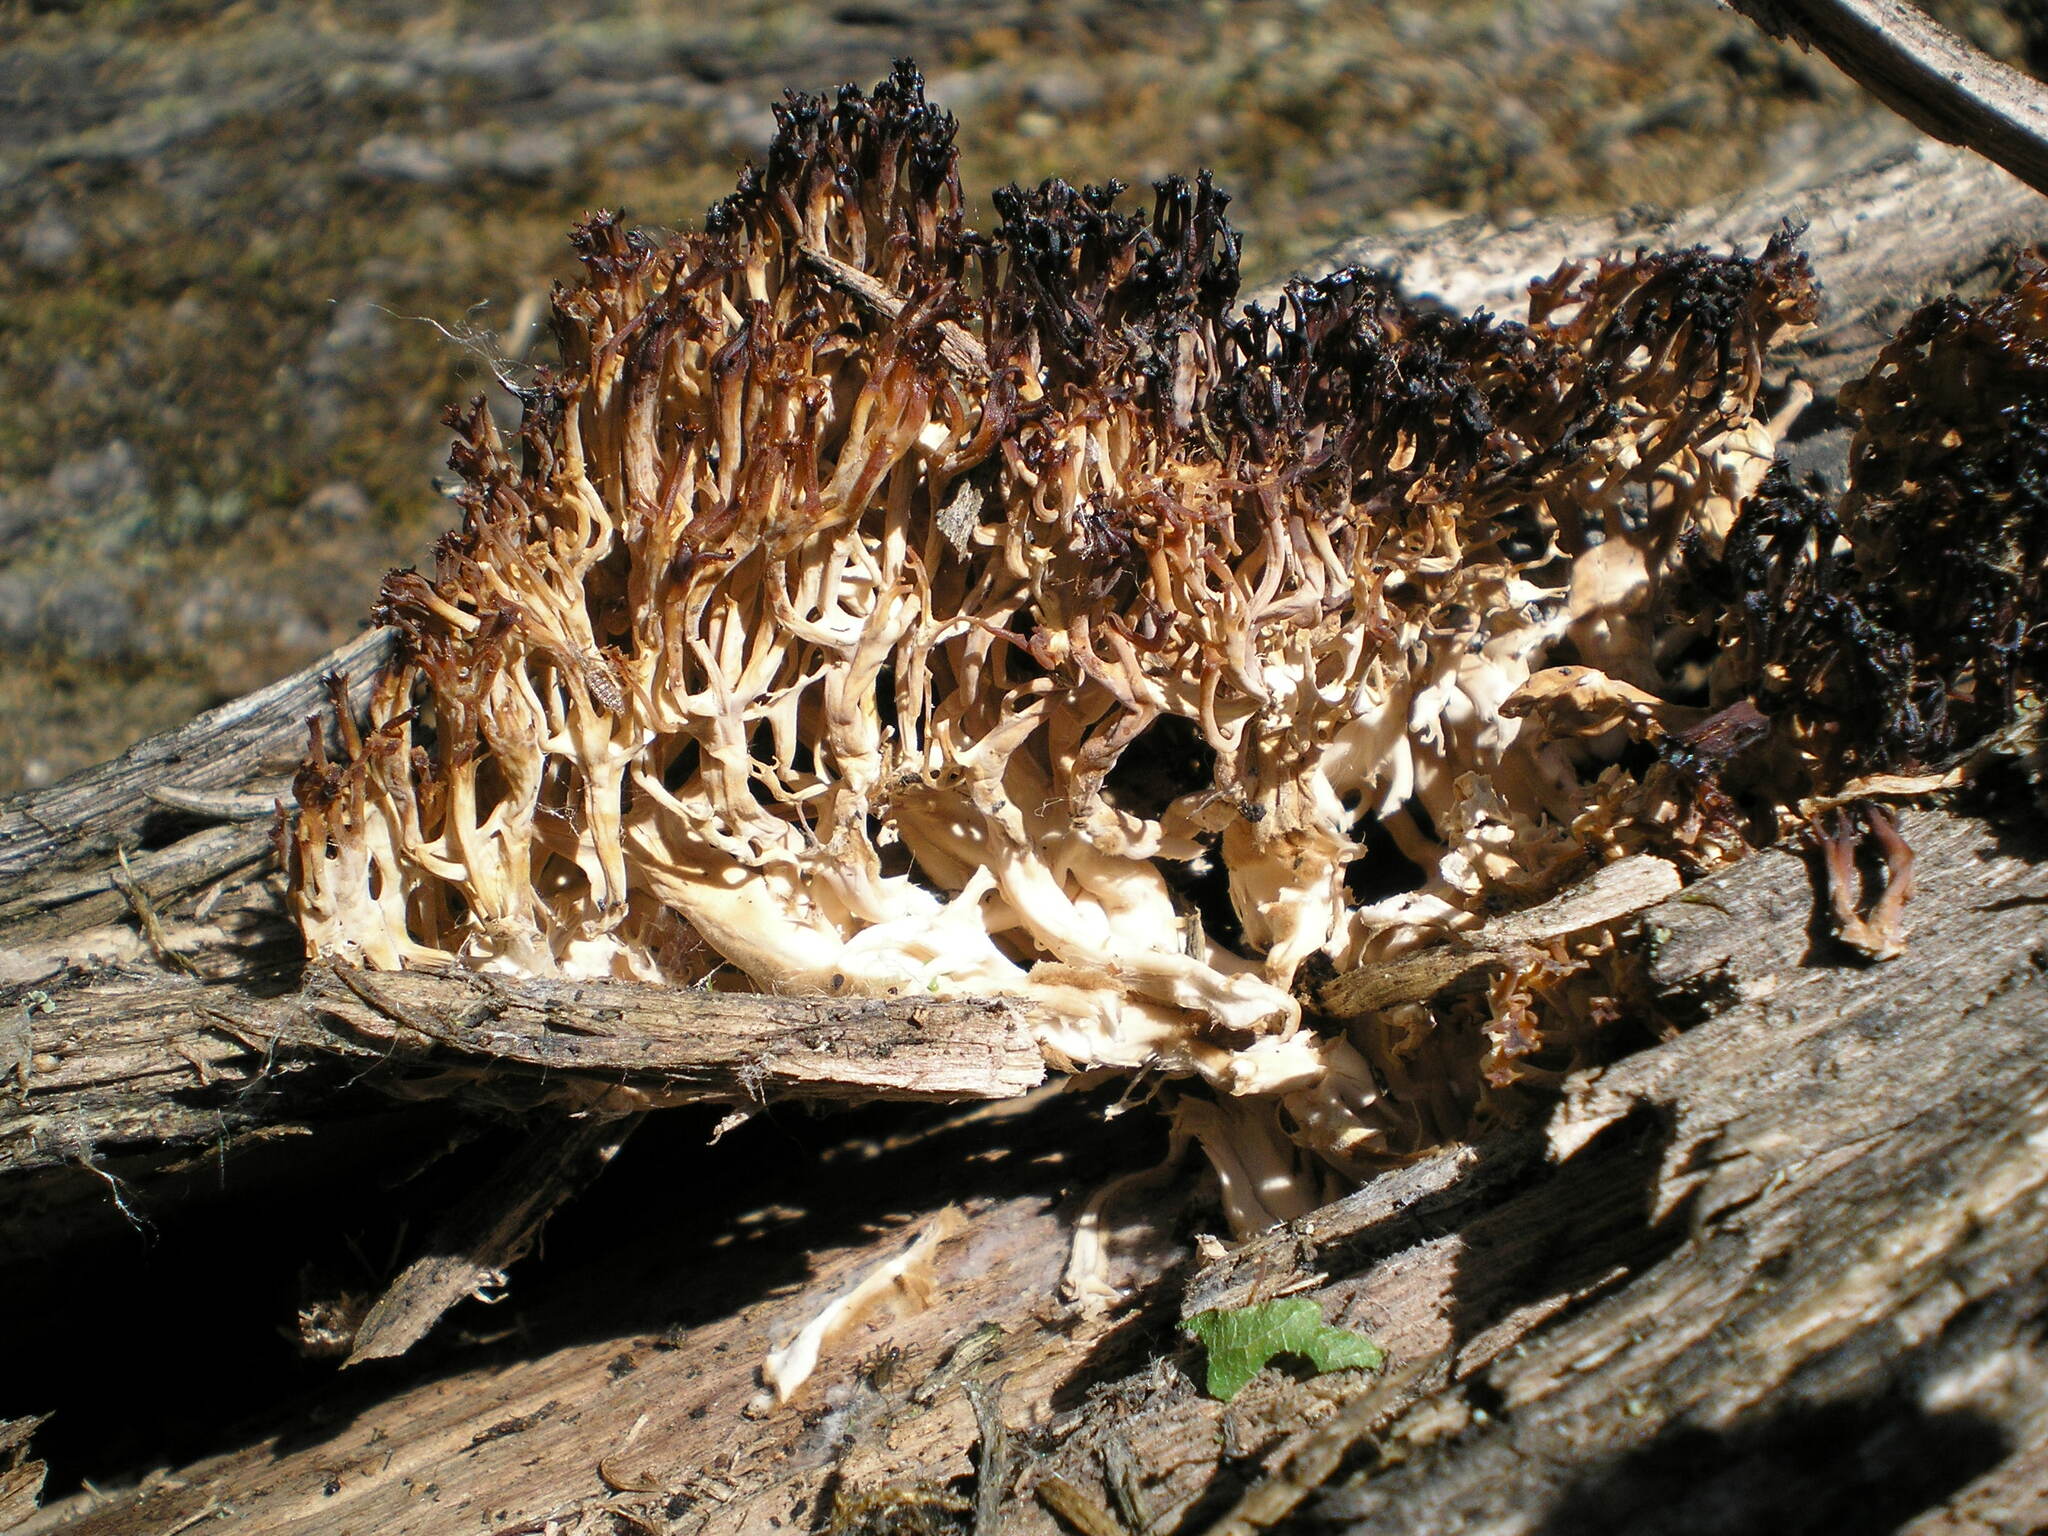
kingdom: Fungi
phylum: Basidiomycota
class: Agaricomycetes
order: Russulales
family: Auriscalpiaceae
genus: Artomyces
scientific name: Artomyces pyxidatus
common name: Crown-tipped coral fungus
